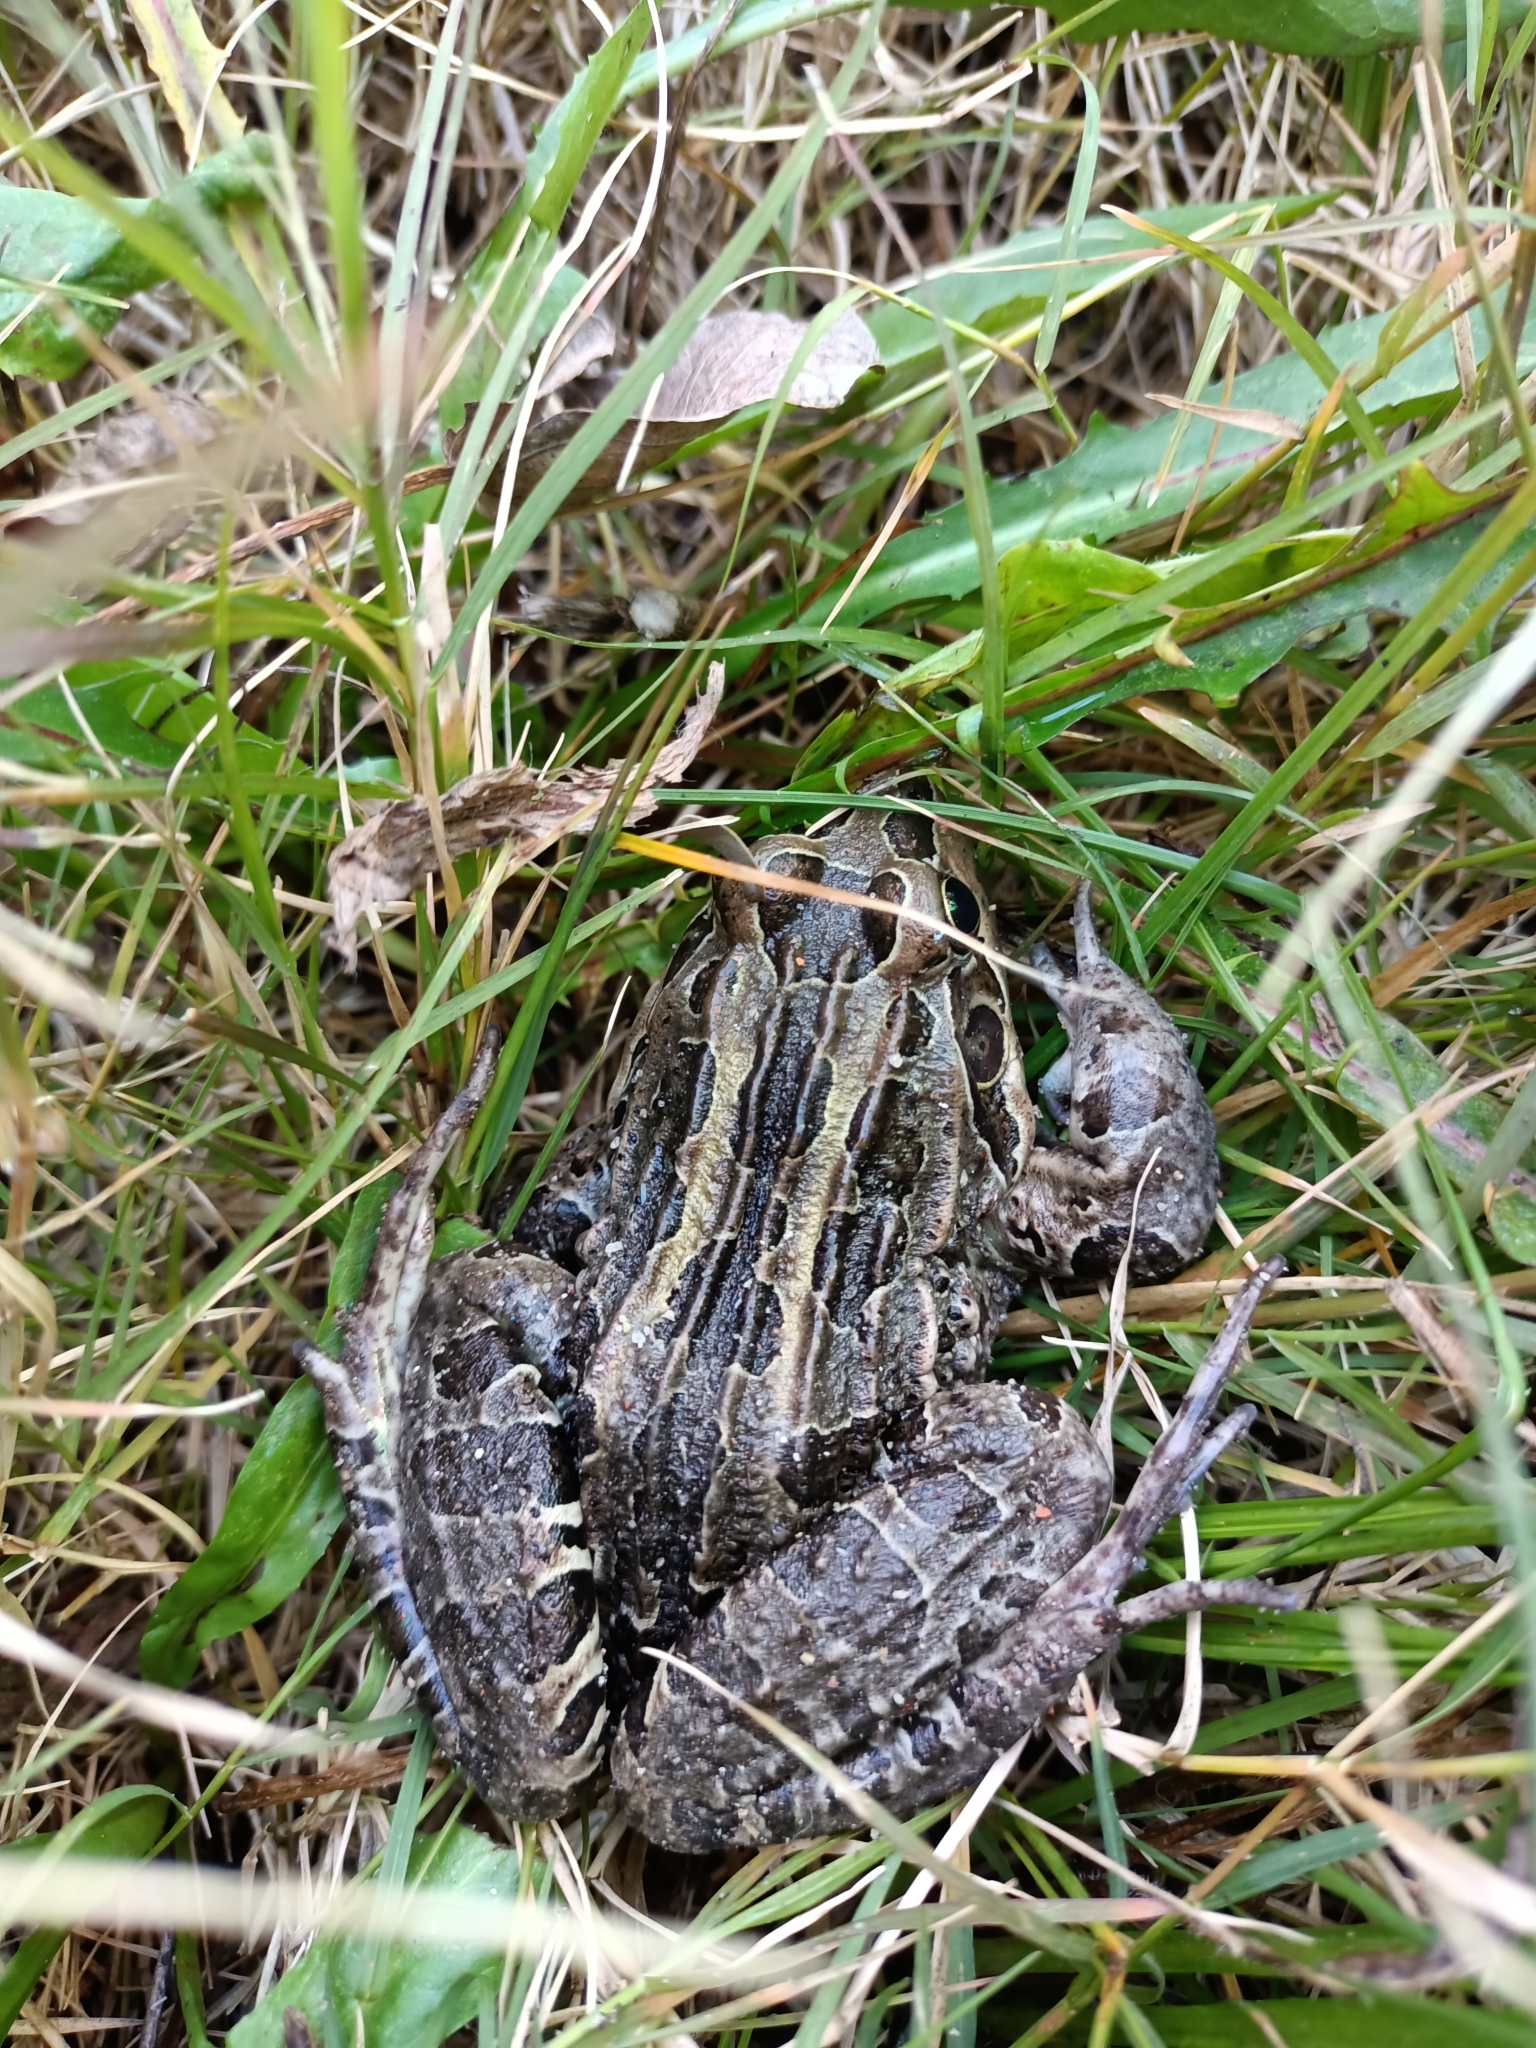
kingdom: Animalia
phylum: Chordata
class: Amphibia
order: Anura
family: Leptodactylidae
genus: Leptodactylus
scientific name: Leptodactylus luctator
